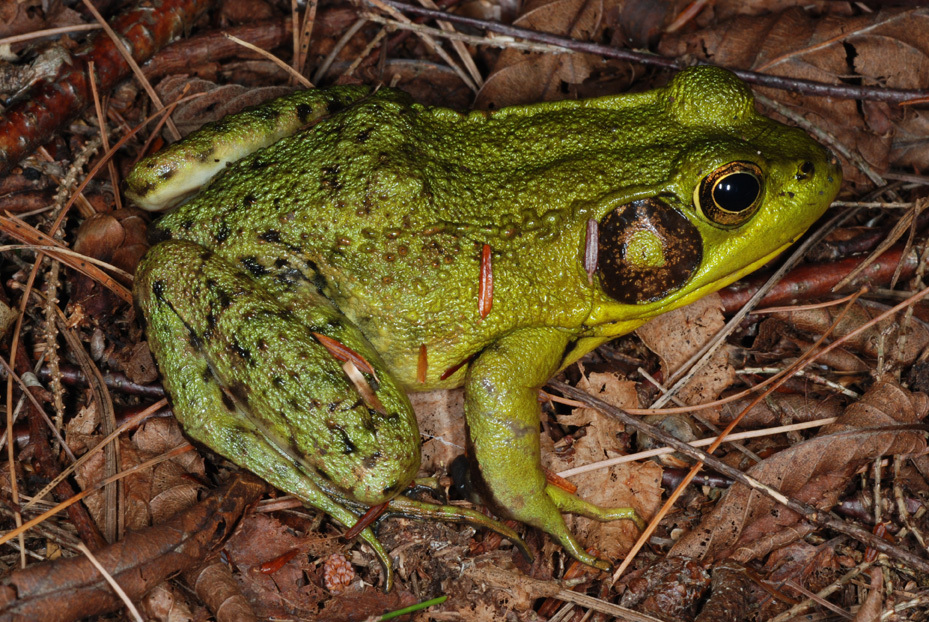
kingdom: Animalia
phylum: Chordata
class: Amphibia
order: Anura
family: Ranidae
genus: Lithobates
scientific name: Lithobates clamitans
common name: Green frog
